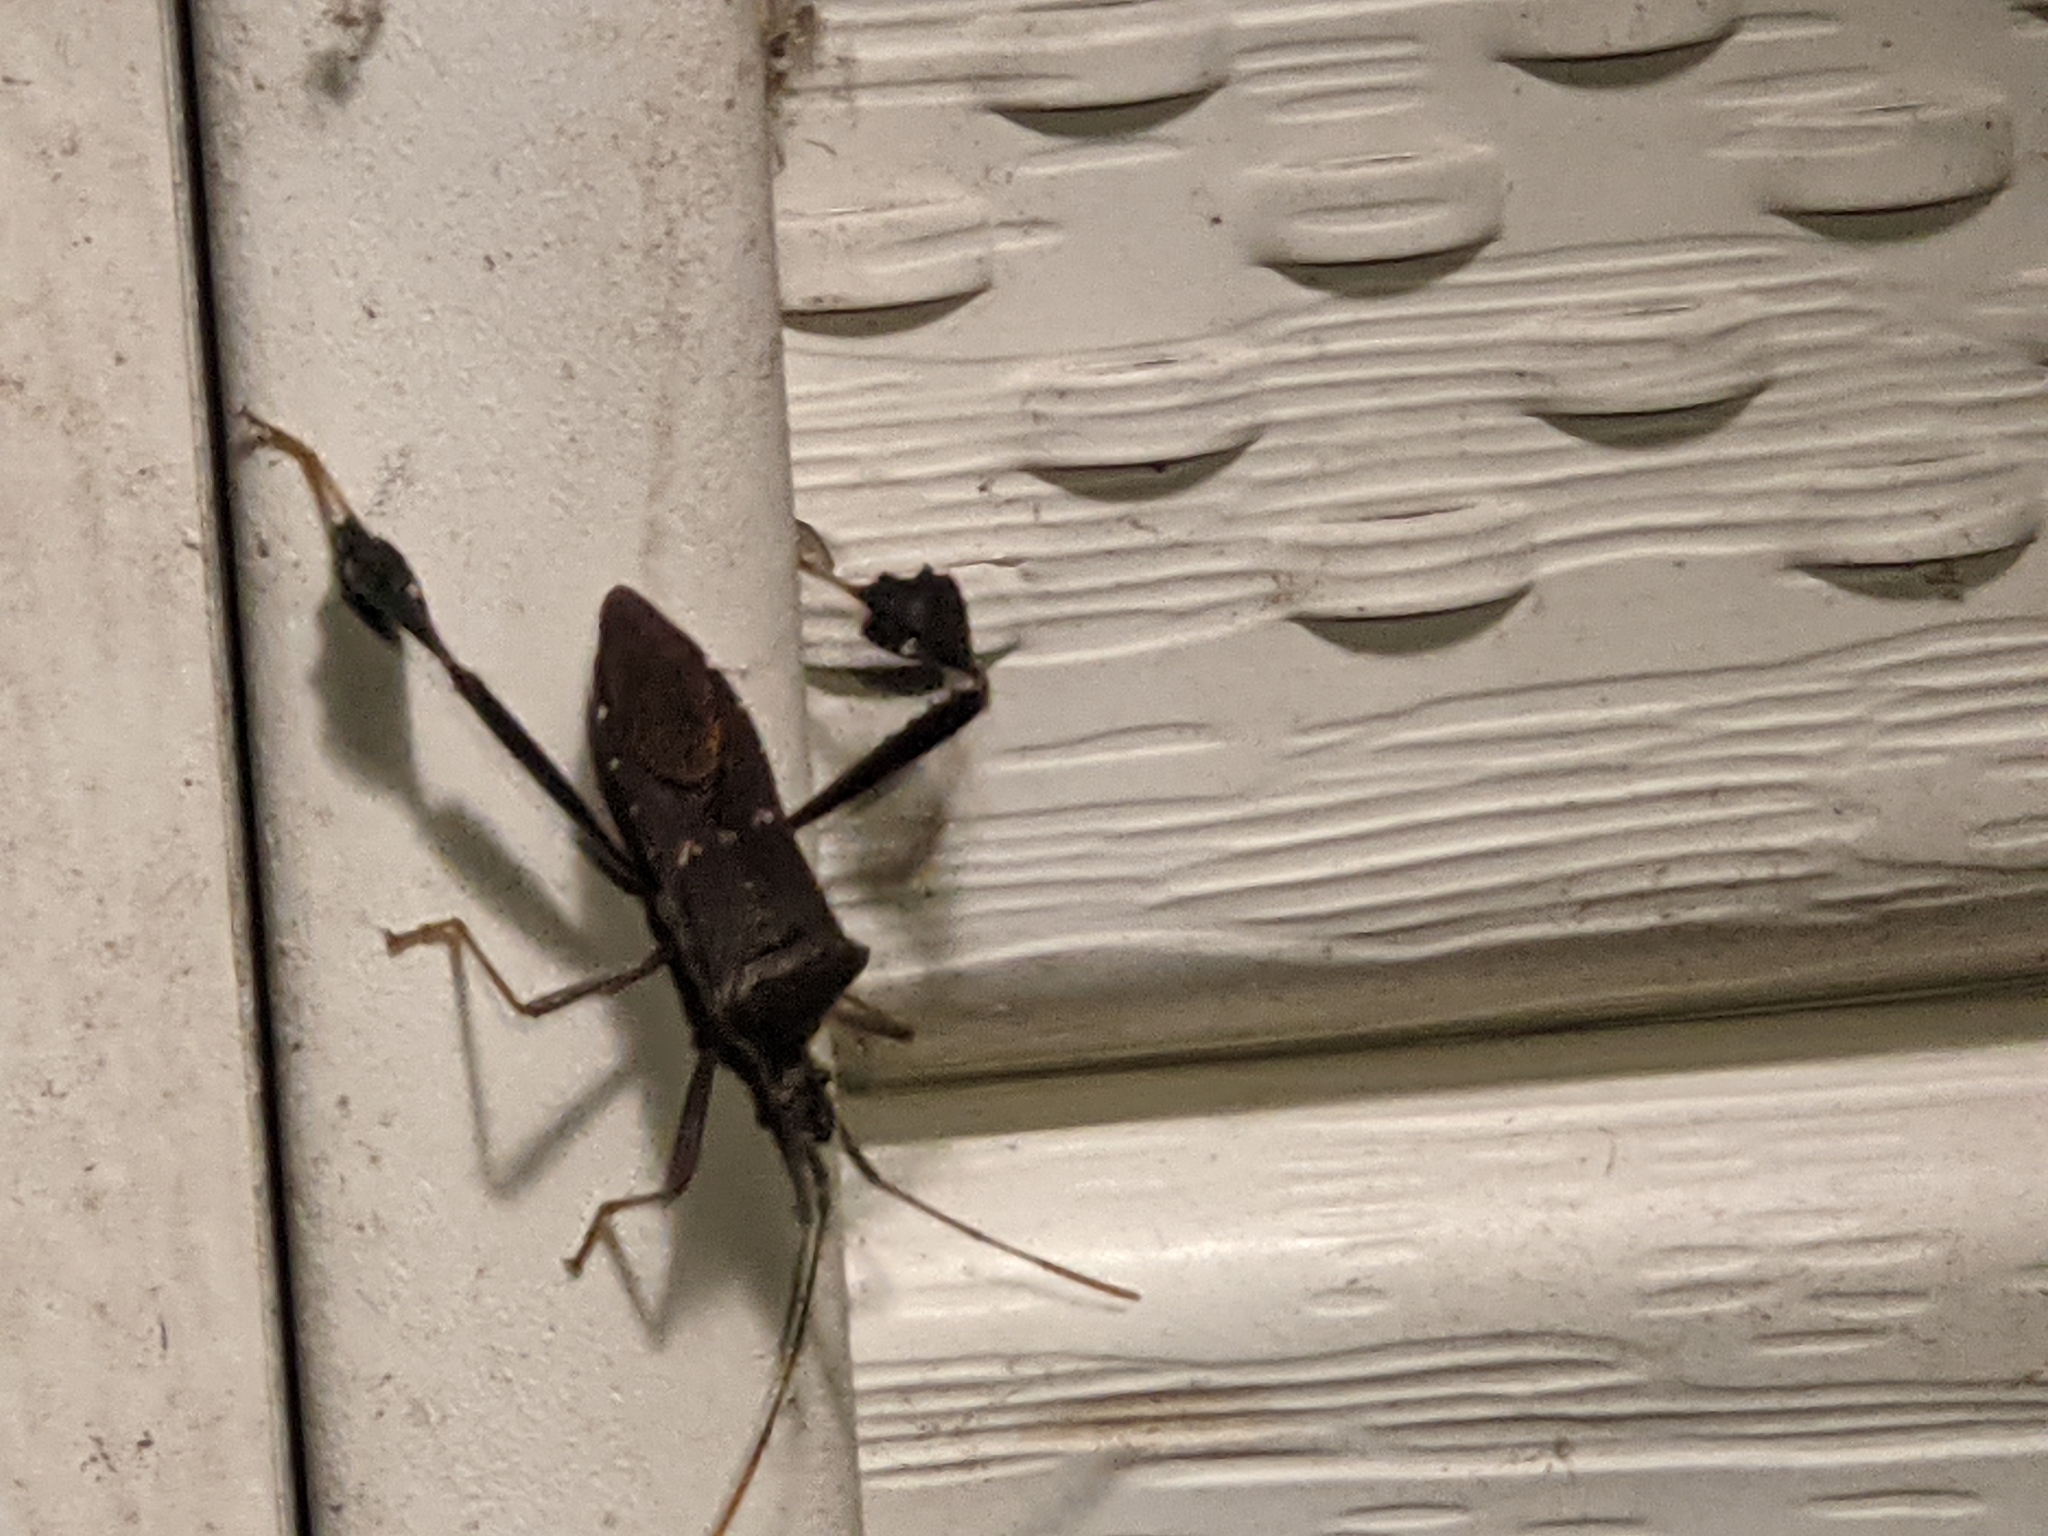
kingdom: Animalia
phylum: Arthropoda
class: Insecta
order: Hemiptera
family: Coreidae
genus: Leptoglossus
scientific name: Leptoglossus oppositus
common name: Northern leaf-footed bug
